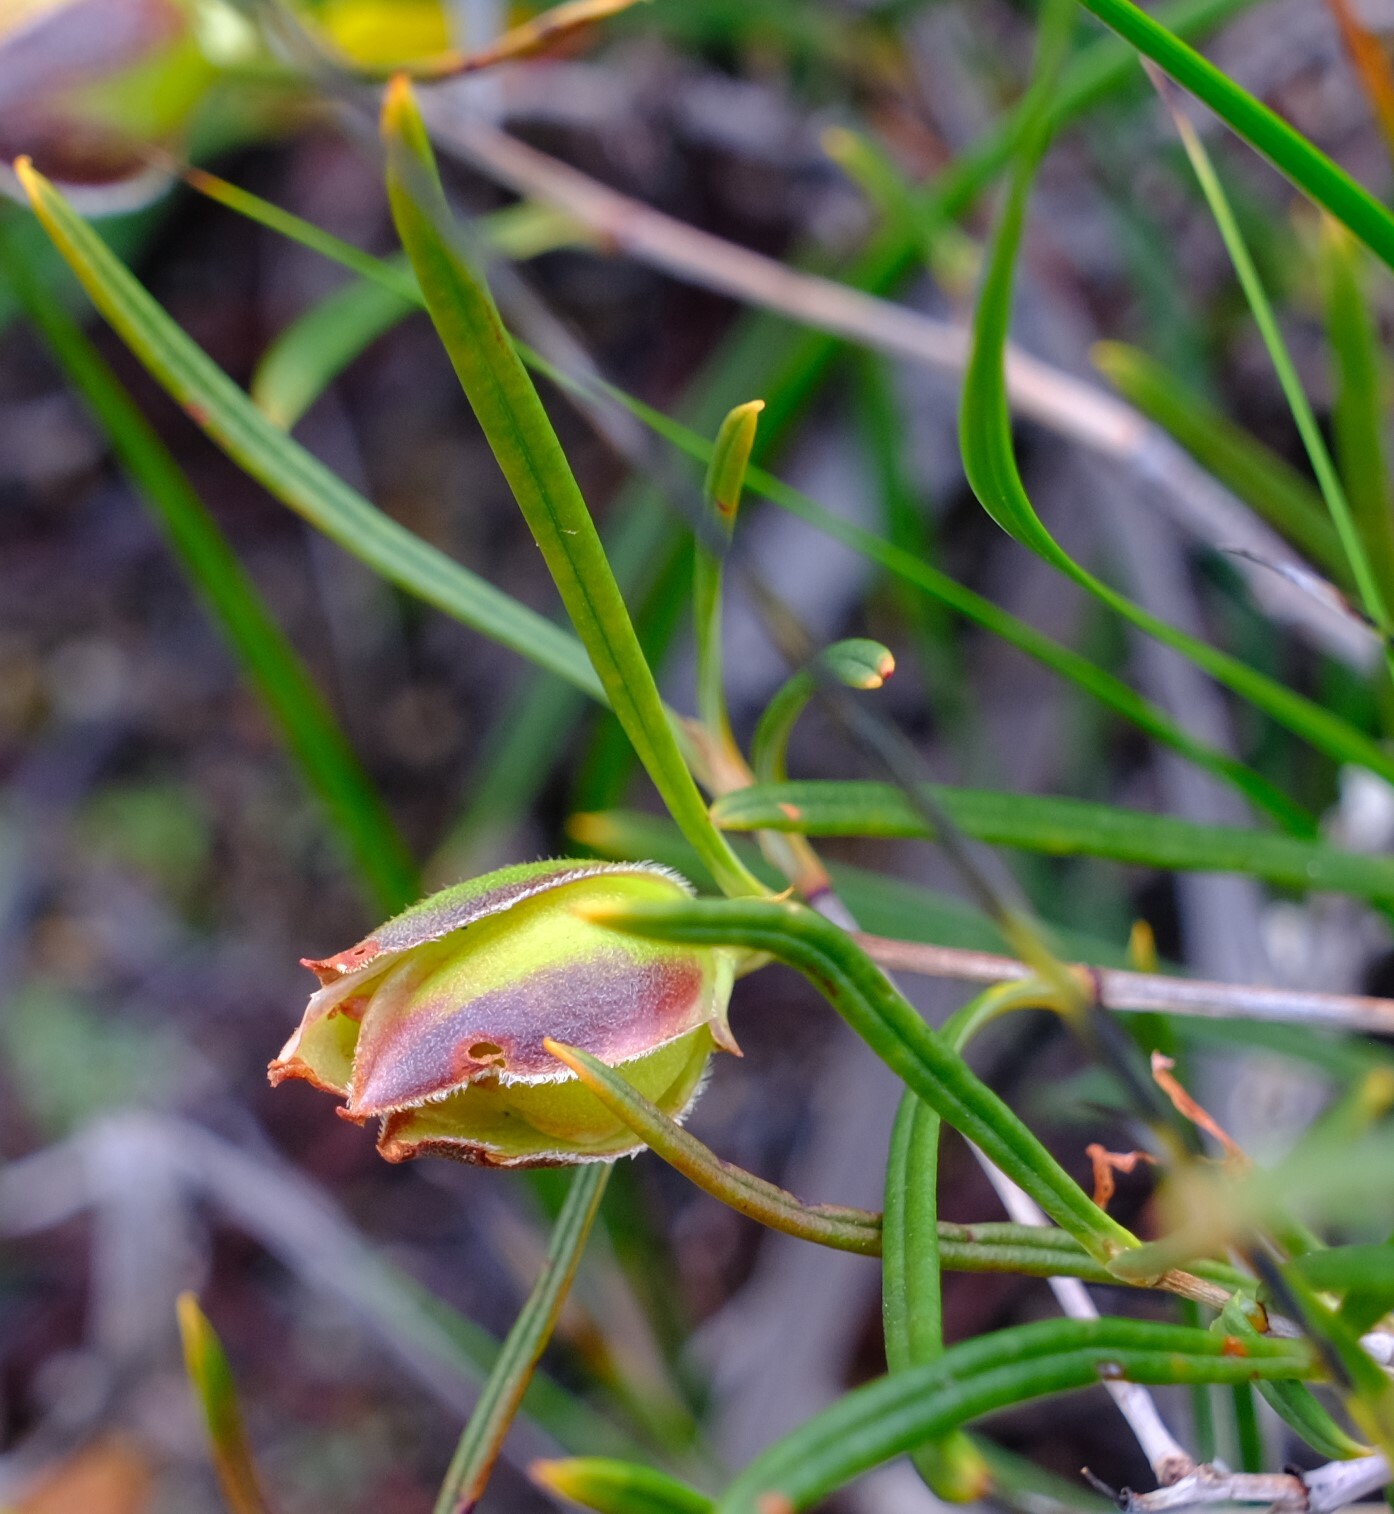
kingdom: Plantae
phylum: Tracheophyta
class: Magnoliopsida
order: Dilleniales
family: Dilleniaceae
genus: Hibbertia
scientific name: Hibbertia striata
